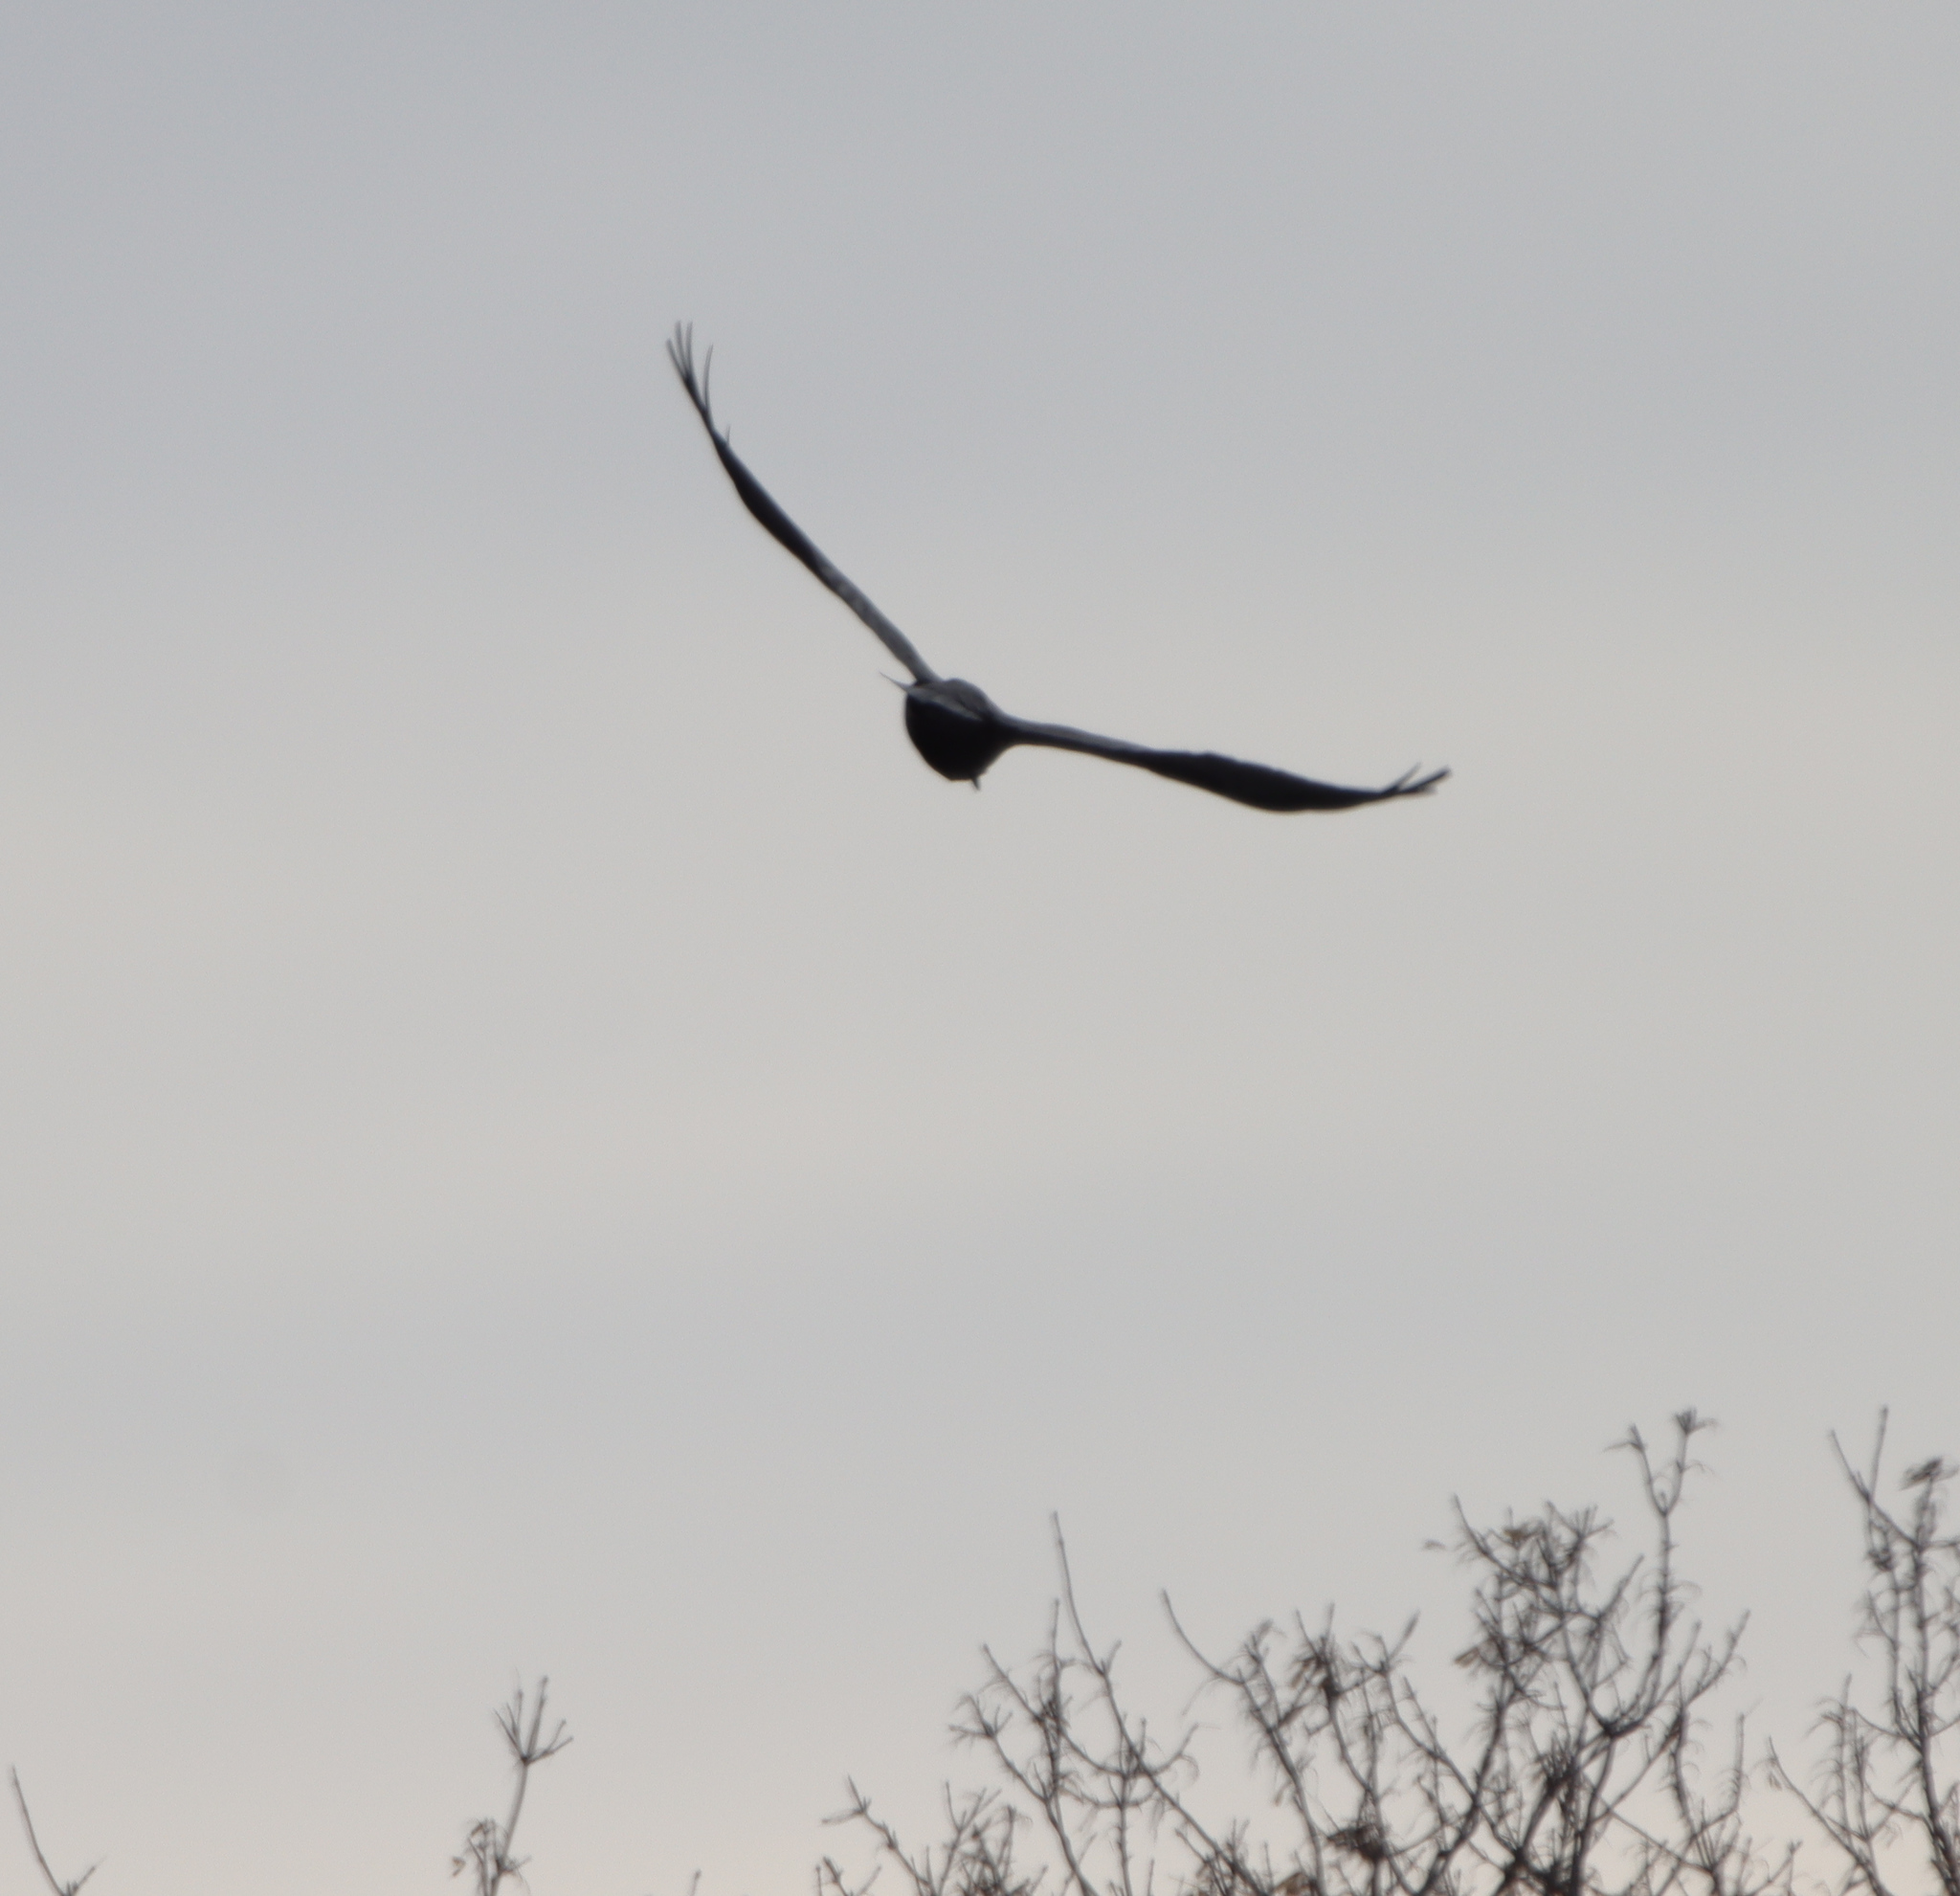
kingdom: Animalia
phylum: Chordata
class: Aves
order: Passeriformes
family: Corvidae
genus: Corvus
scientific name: Corvus corax
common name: Common raven
